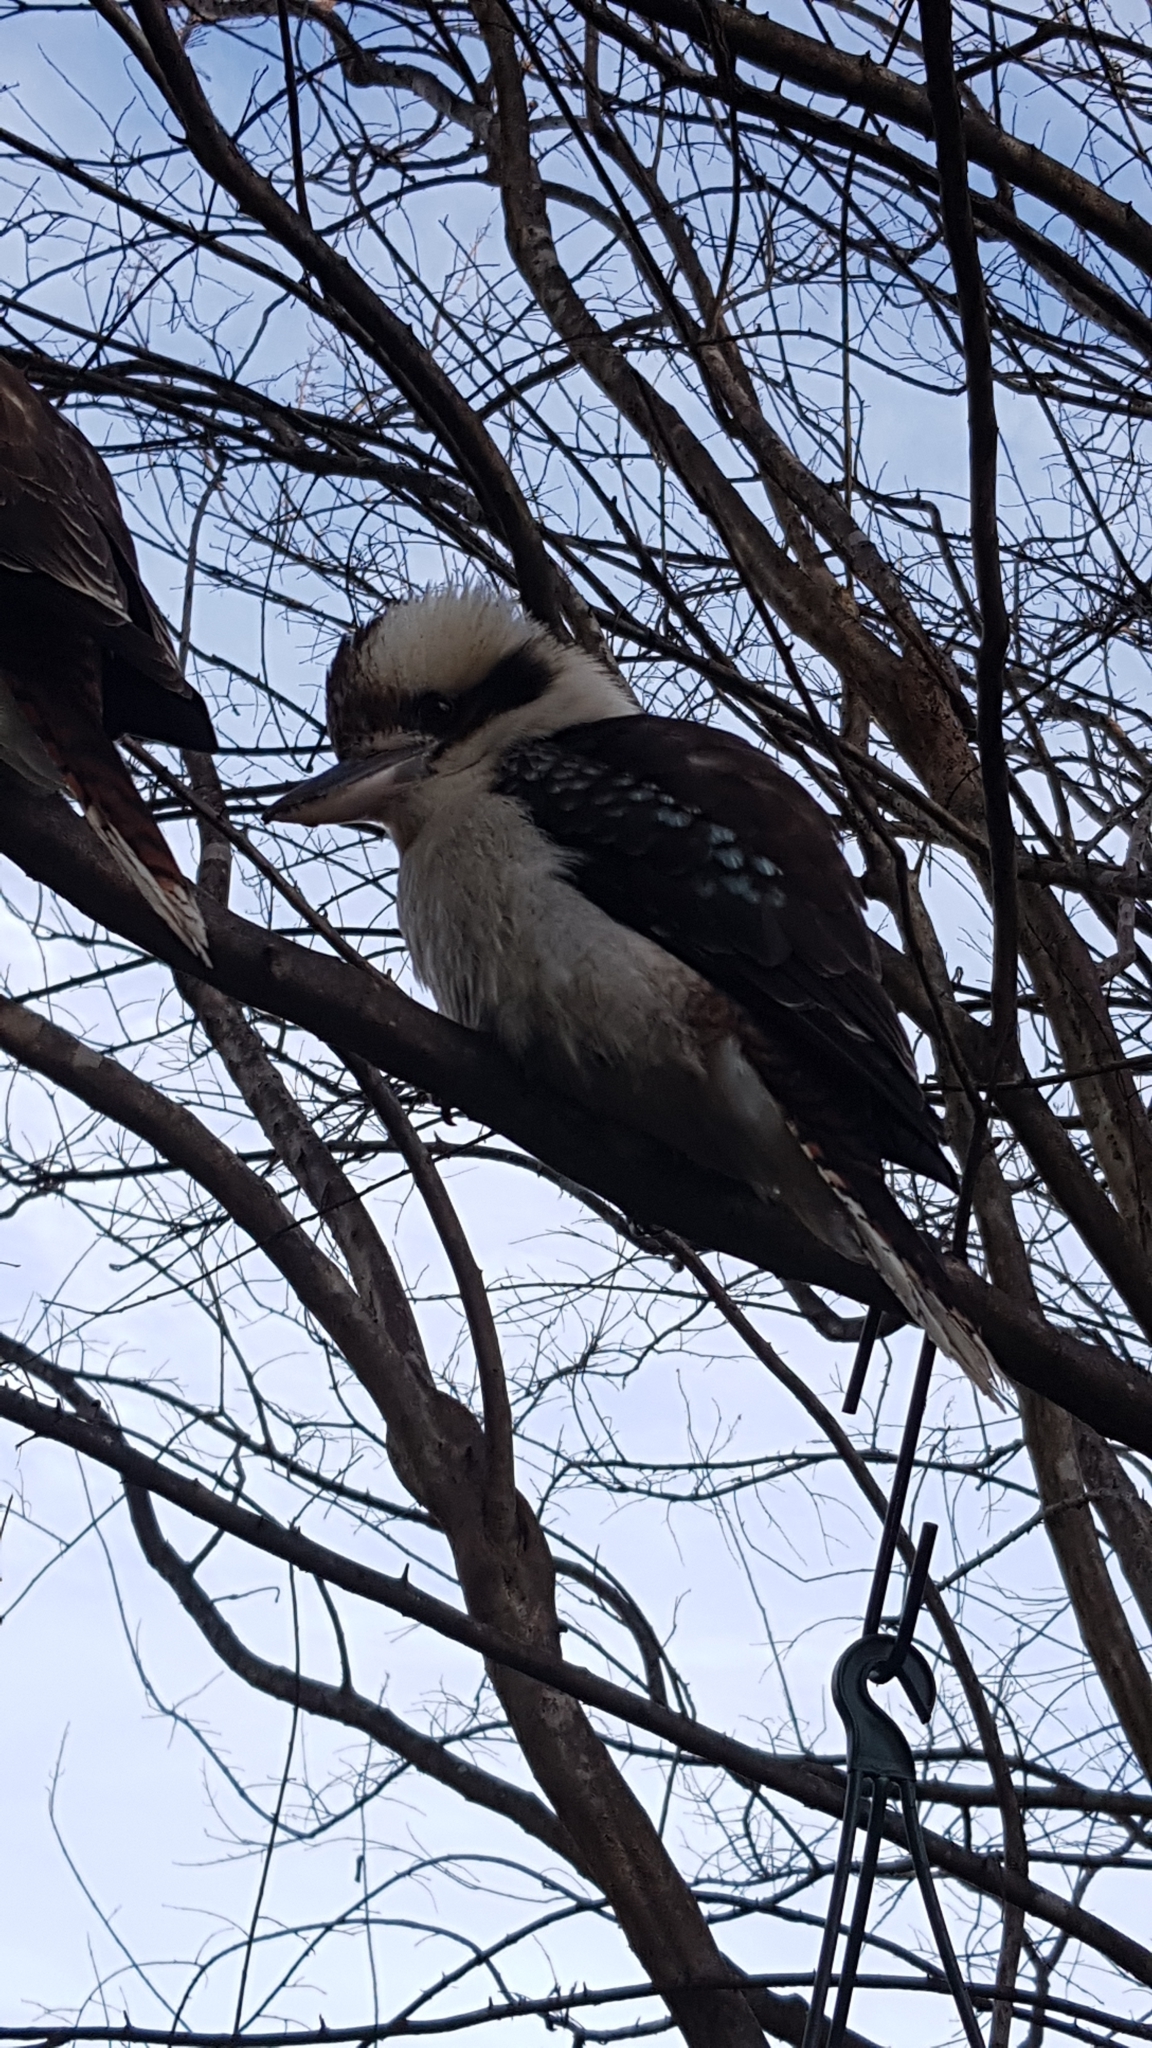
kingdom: Animalia
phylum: Chordata
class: Aves
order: Coraciiformes
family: Alcedinidae
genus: Dacelo
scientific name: Dacelo novaeguineae
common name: Laughing kookaburra
